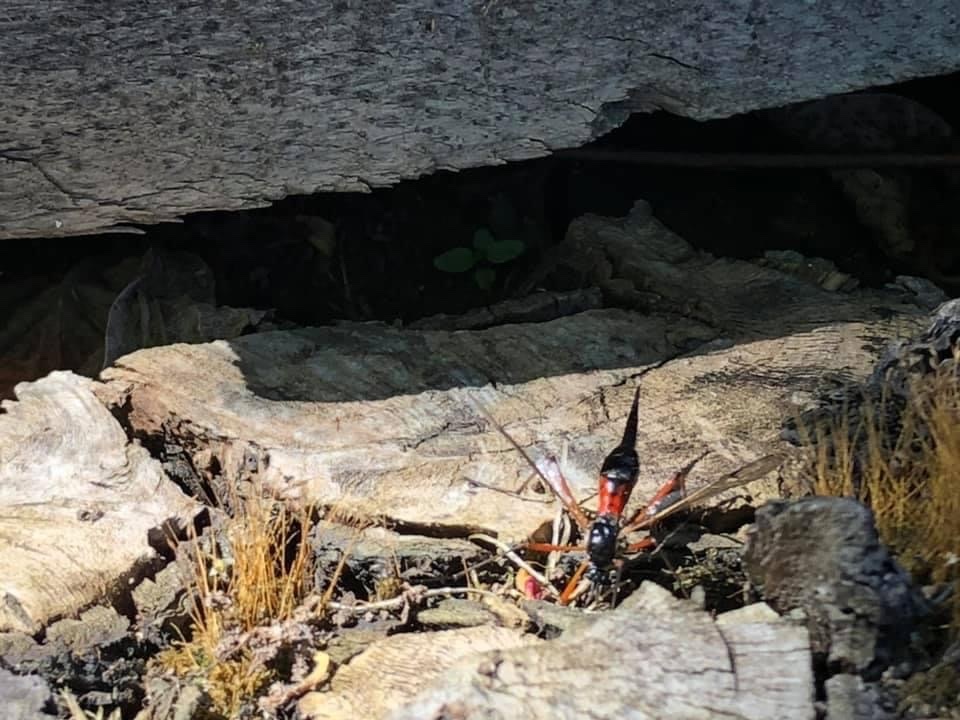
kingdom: Animalia
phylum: Arthropoda
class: Insecta
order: Diptera
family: Tipulidae
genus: Tanyptera
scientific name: Tanyptera atrata
